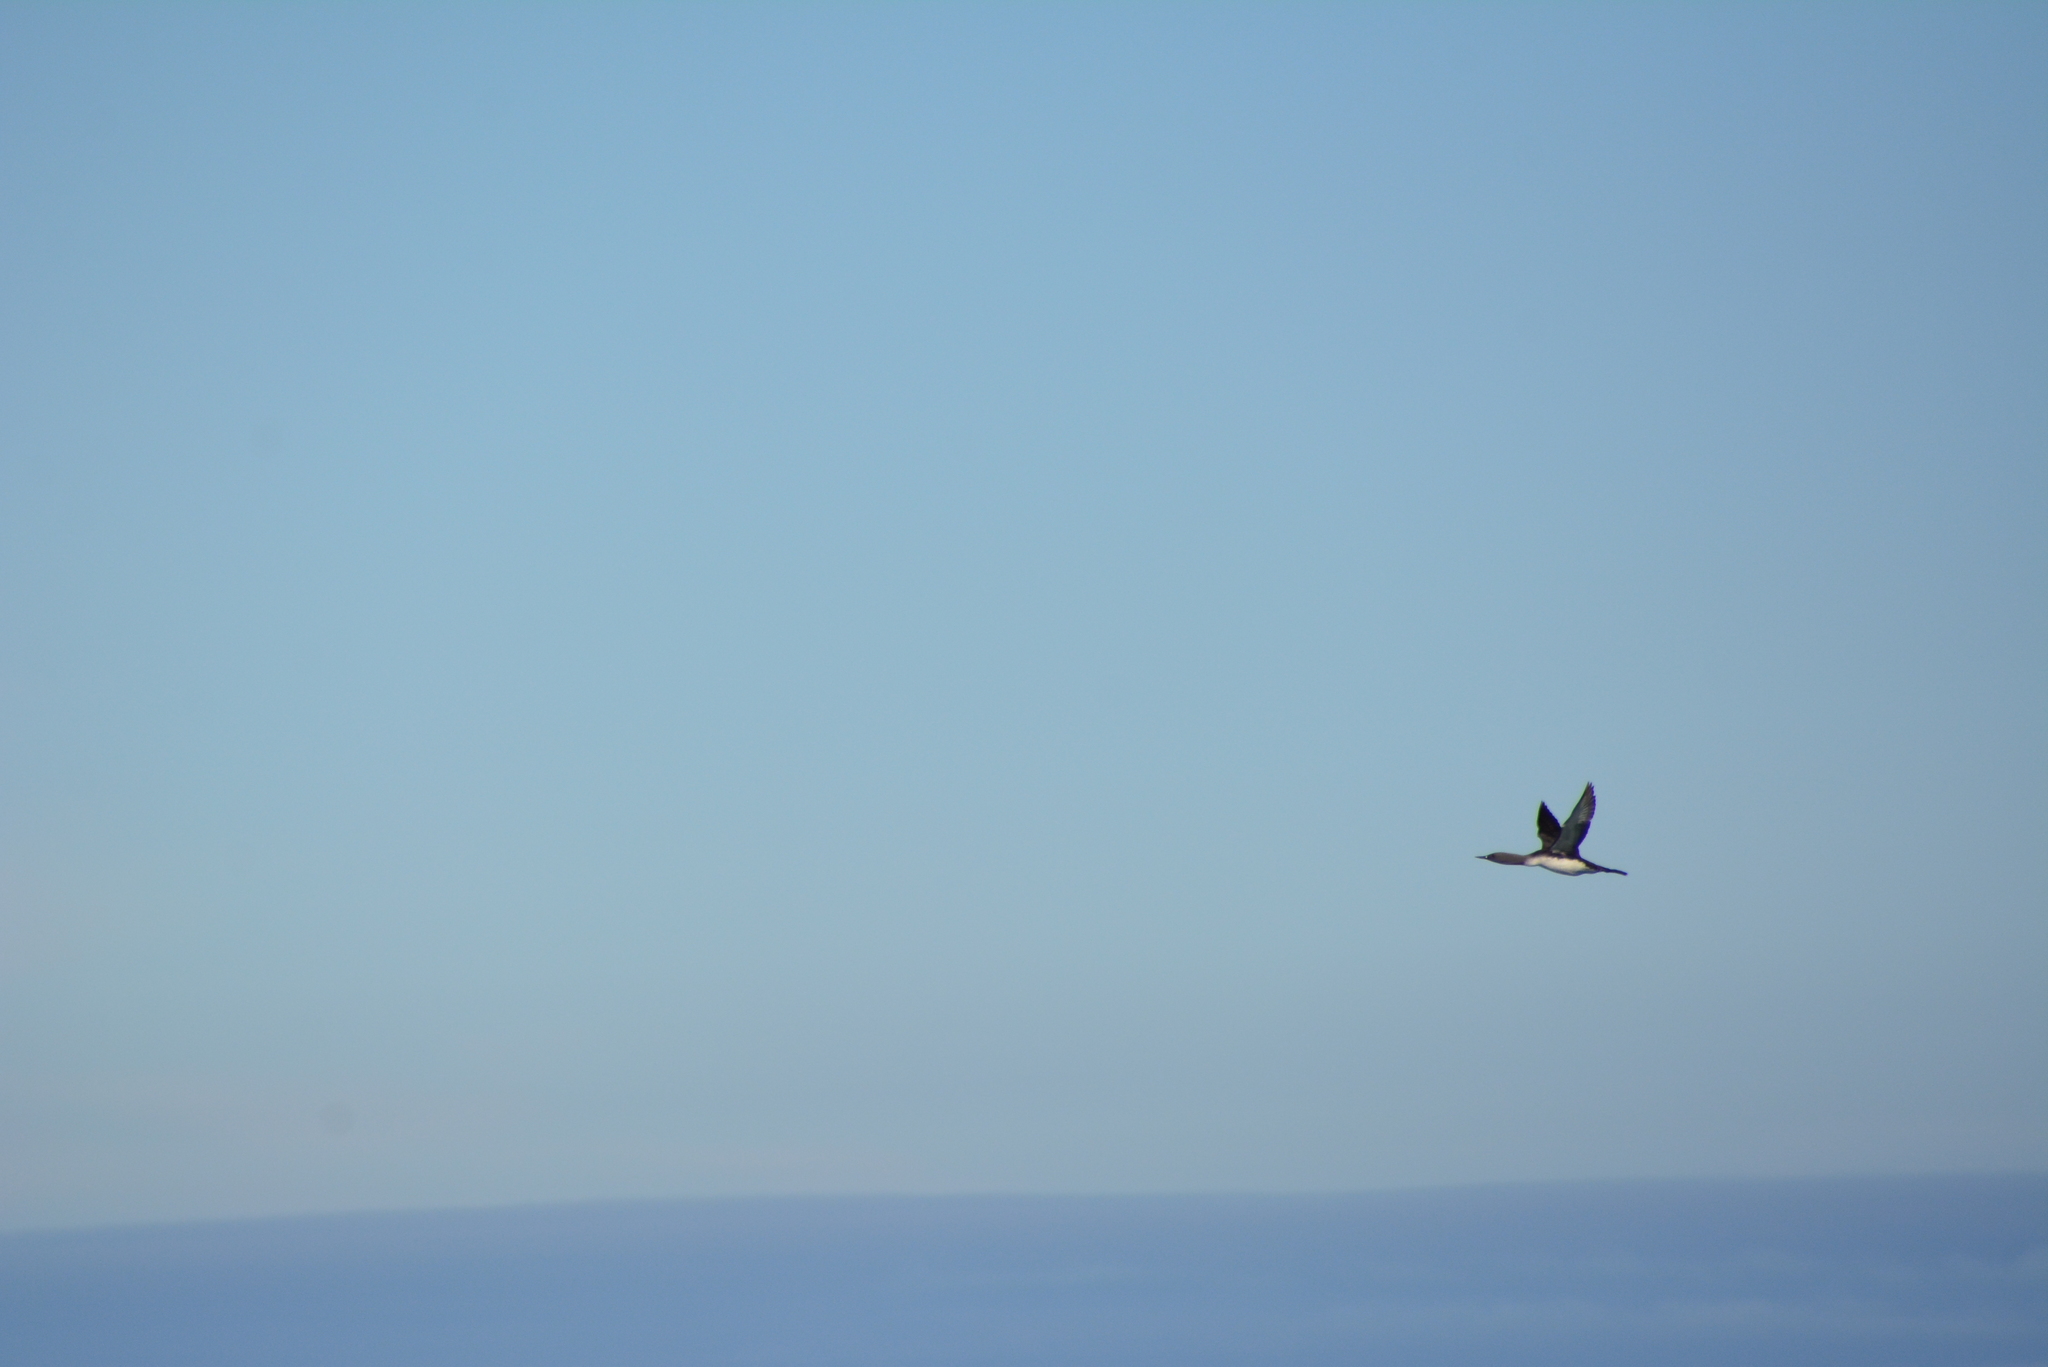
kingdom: Animalia
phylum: Chordata
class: Aves
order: Gaviiformes
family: Gaviidae
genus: Gavia
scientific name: Gavia stellata
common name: Red-throated loon
